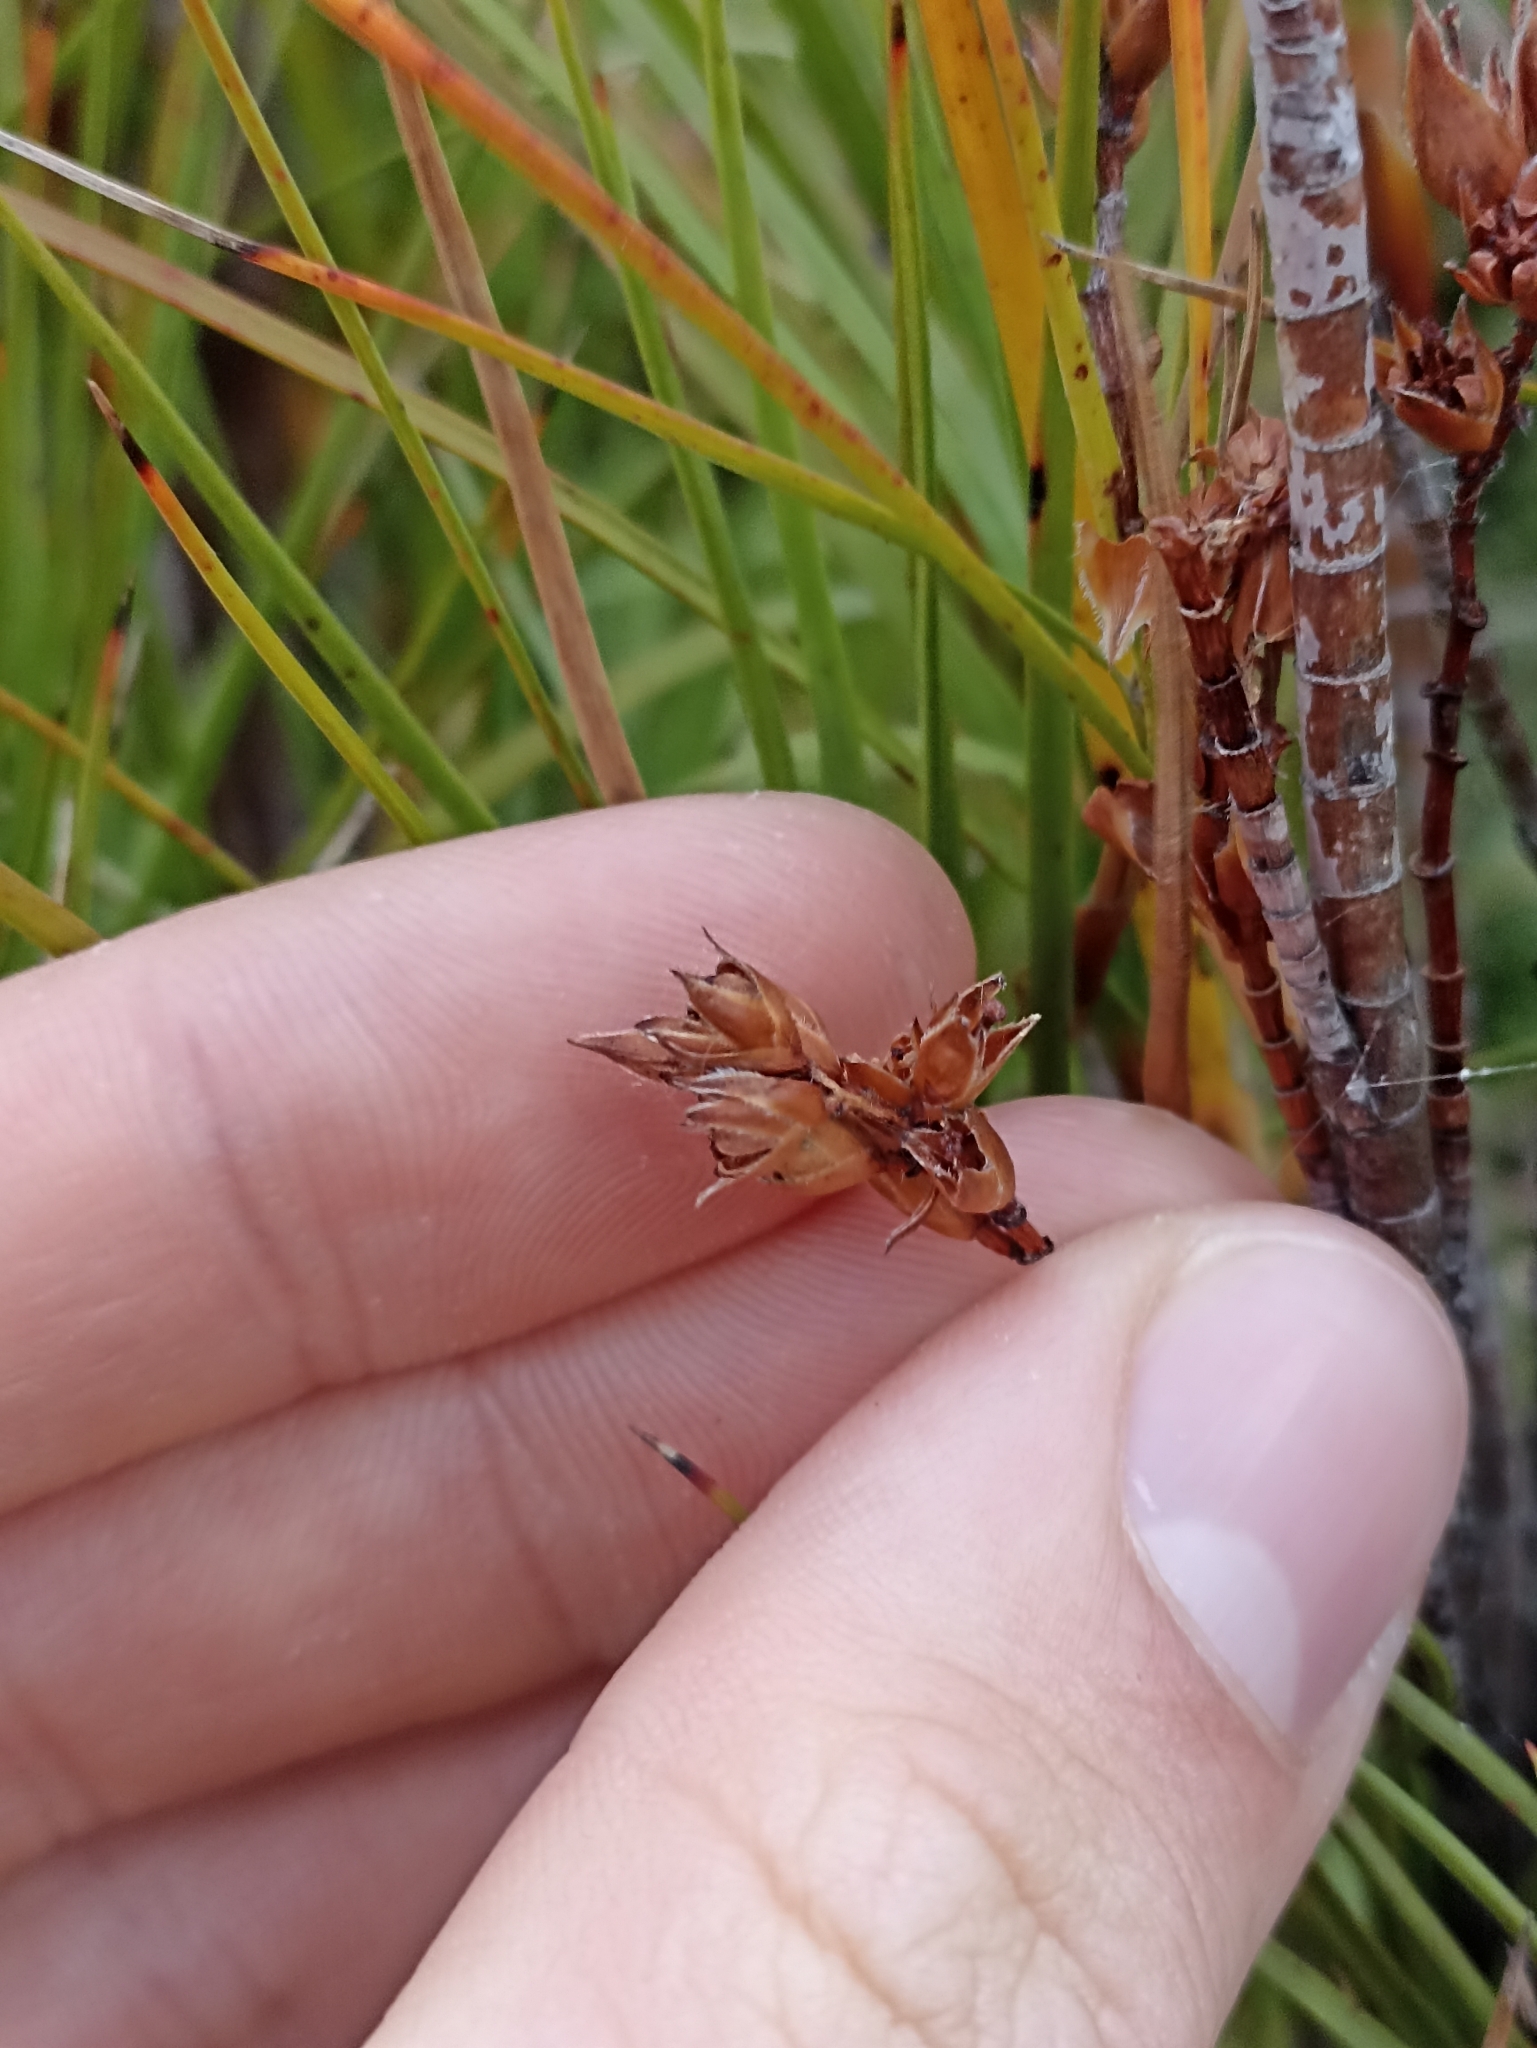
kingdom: Plantae
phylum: Tracheophyta
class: Magnoliopsida
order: Ericales
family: Ericaceae
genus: Dracophyllum
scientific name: Dracophyllum longifolium
